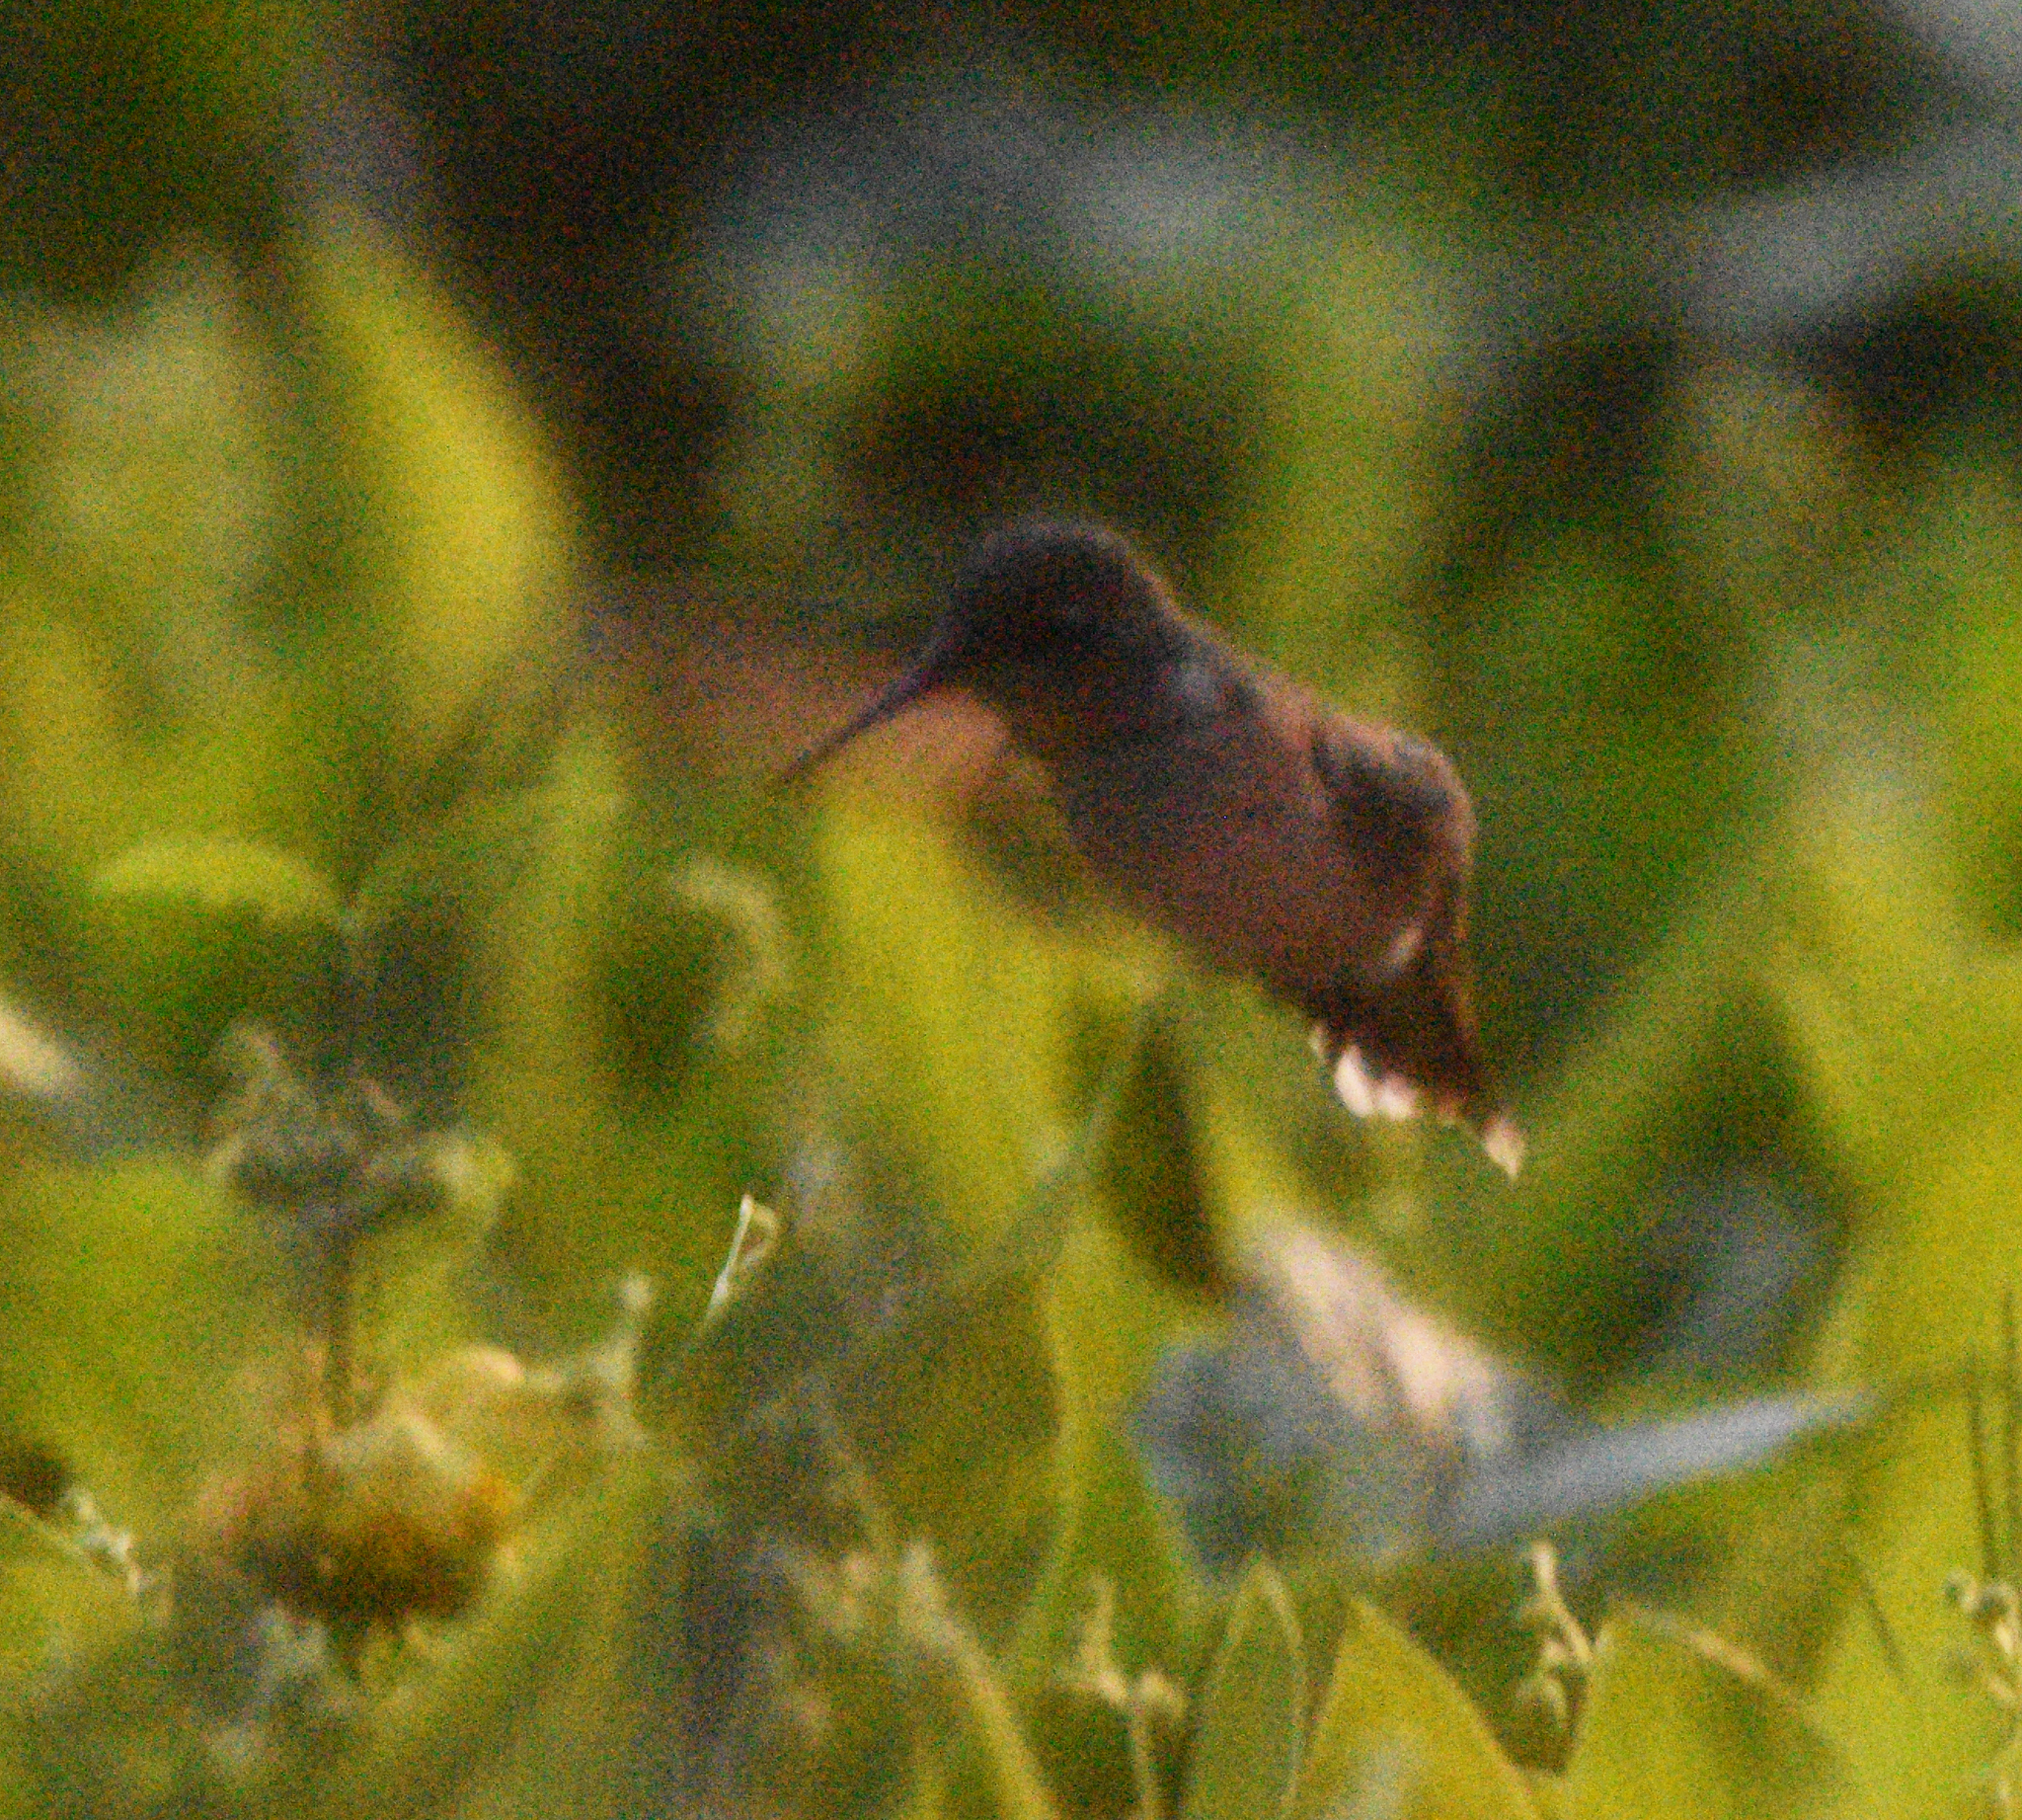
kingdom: Animalia
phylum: Chordata
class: Aves
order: Apodiformes
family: Trochilidae
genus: Archilochus
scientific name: Archilochus colubris
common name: Ruby-throated hummingbird
